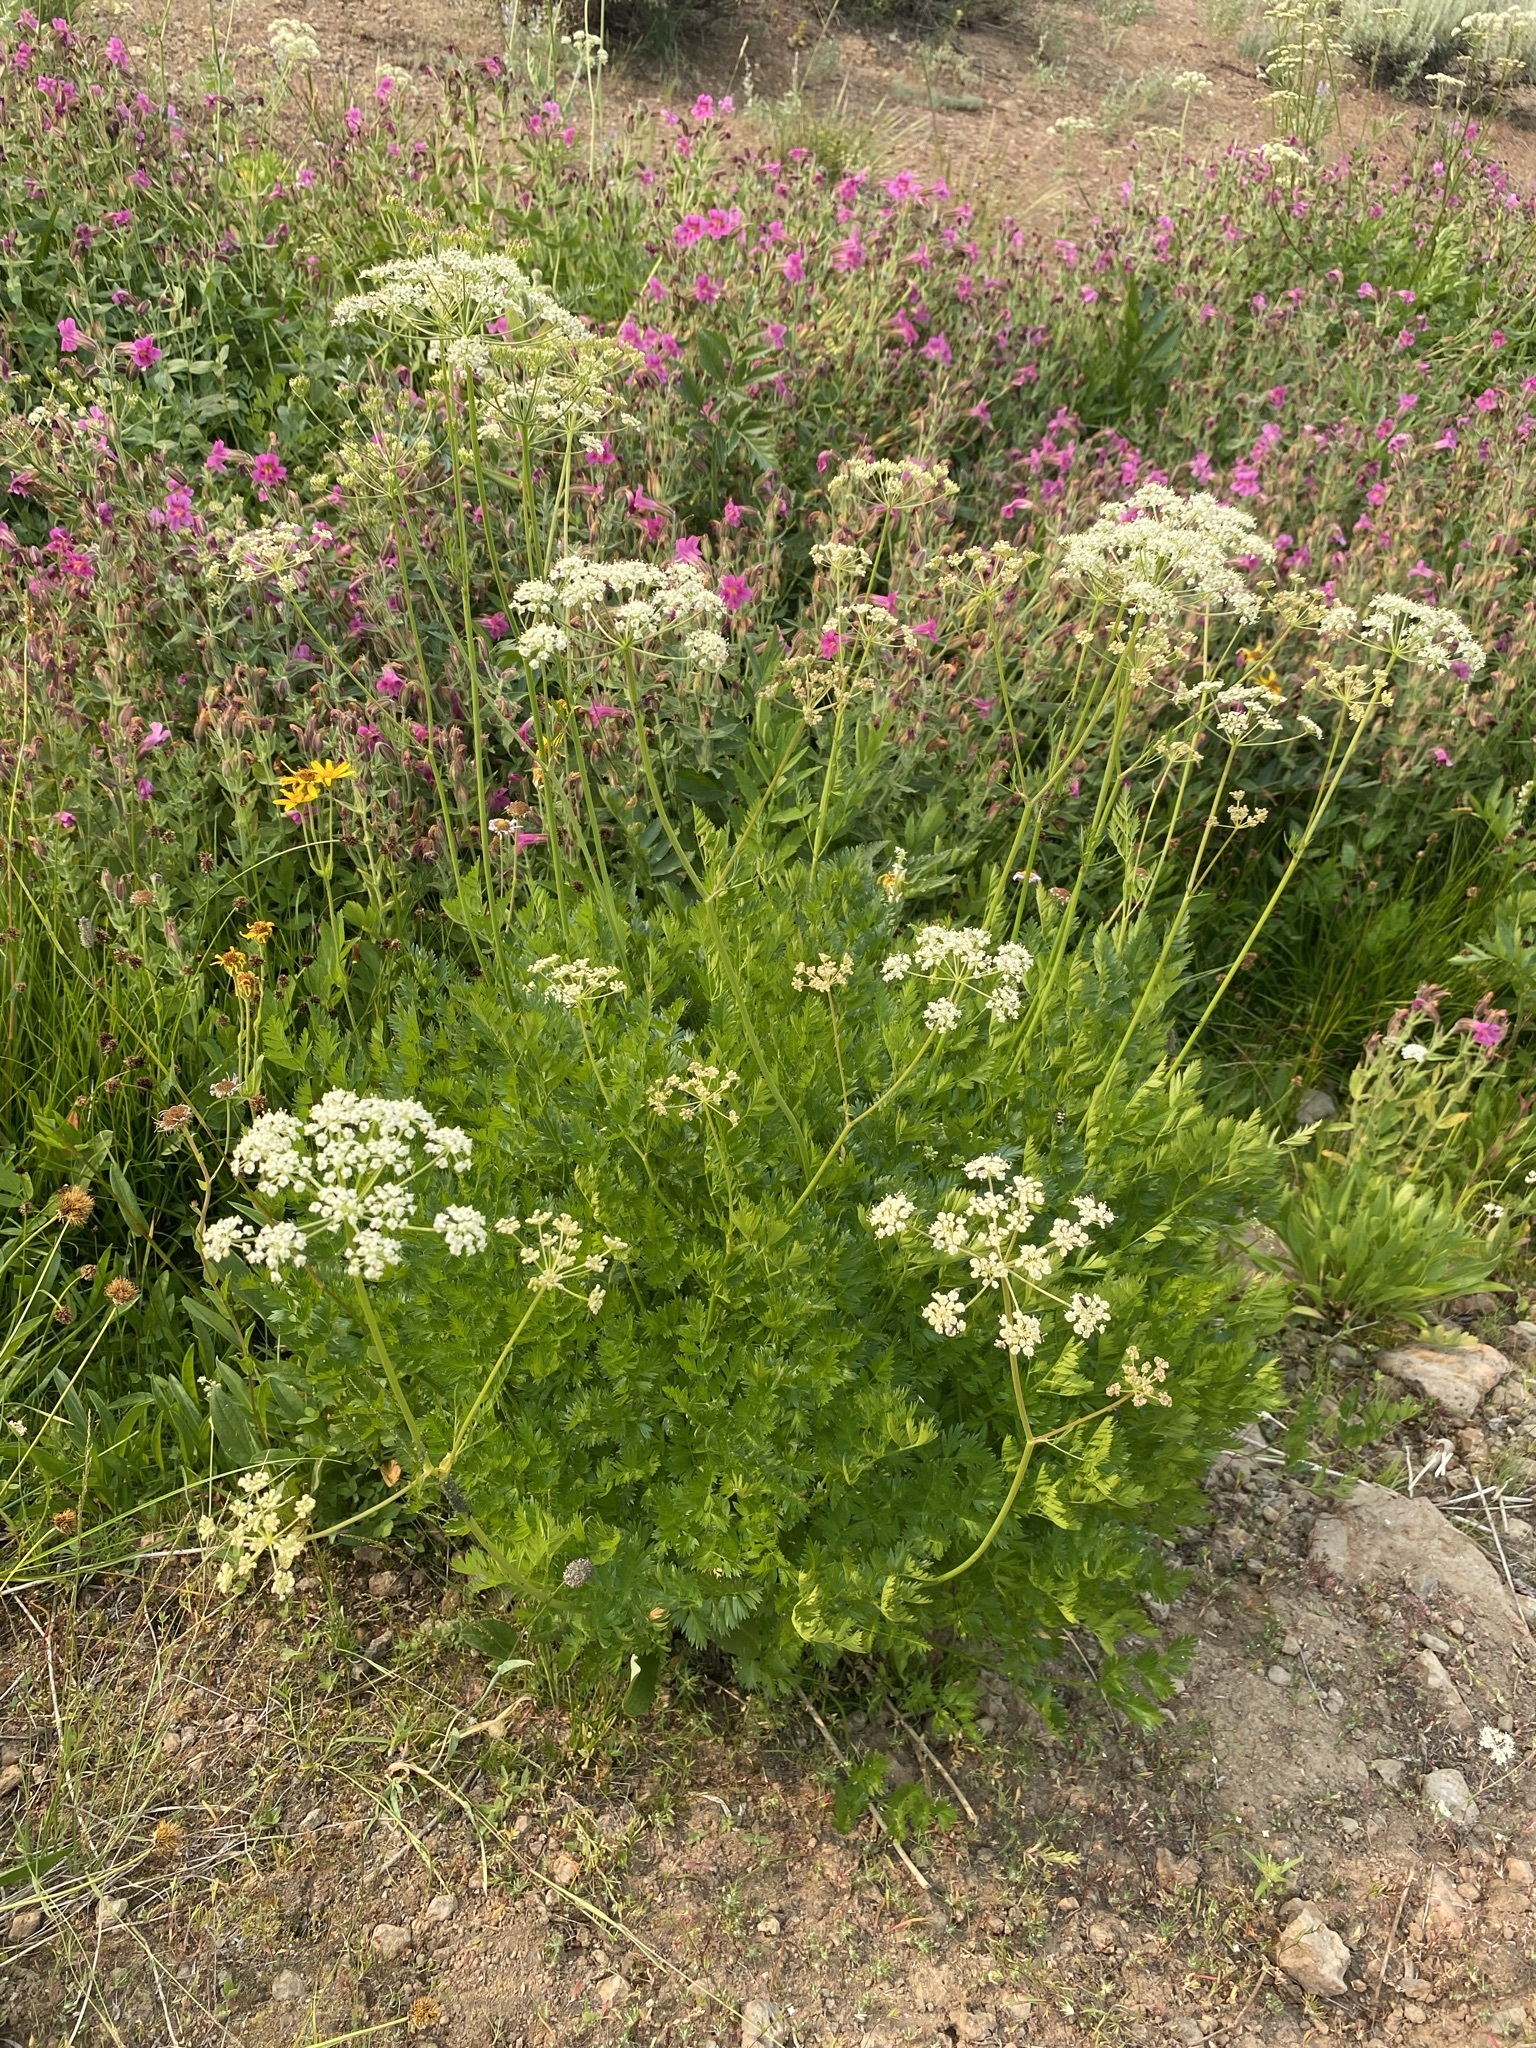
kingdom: Plantae
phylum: Tracheophyta
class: Magnoliopsida
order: Apiales
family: Apiaceae
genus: Ligusticum
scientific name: Ligusticum grayi
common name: Gray's licorice-root
